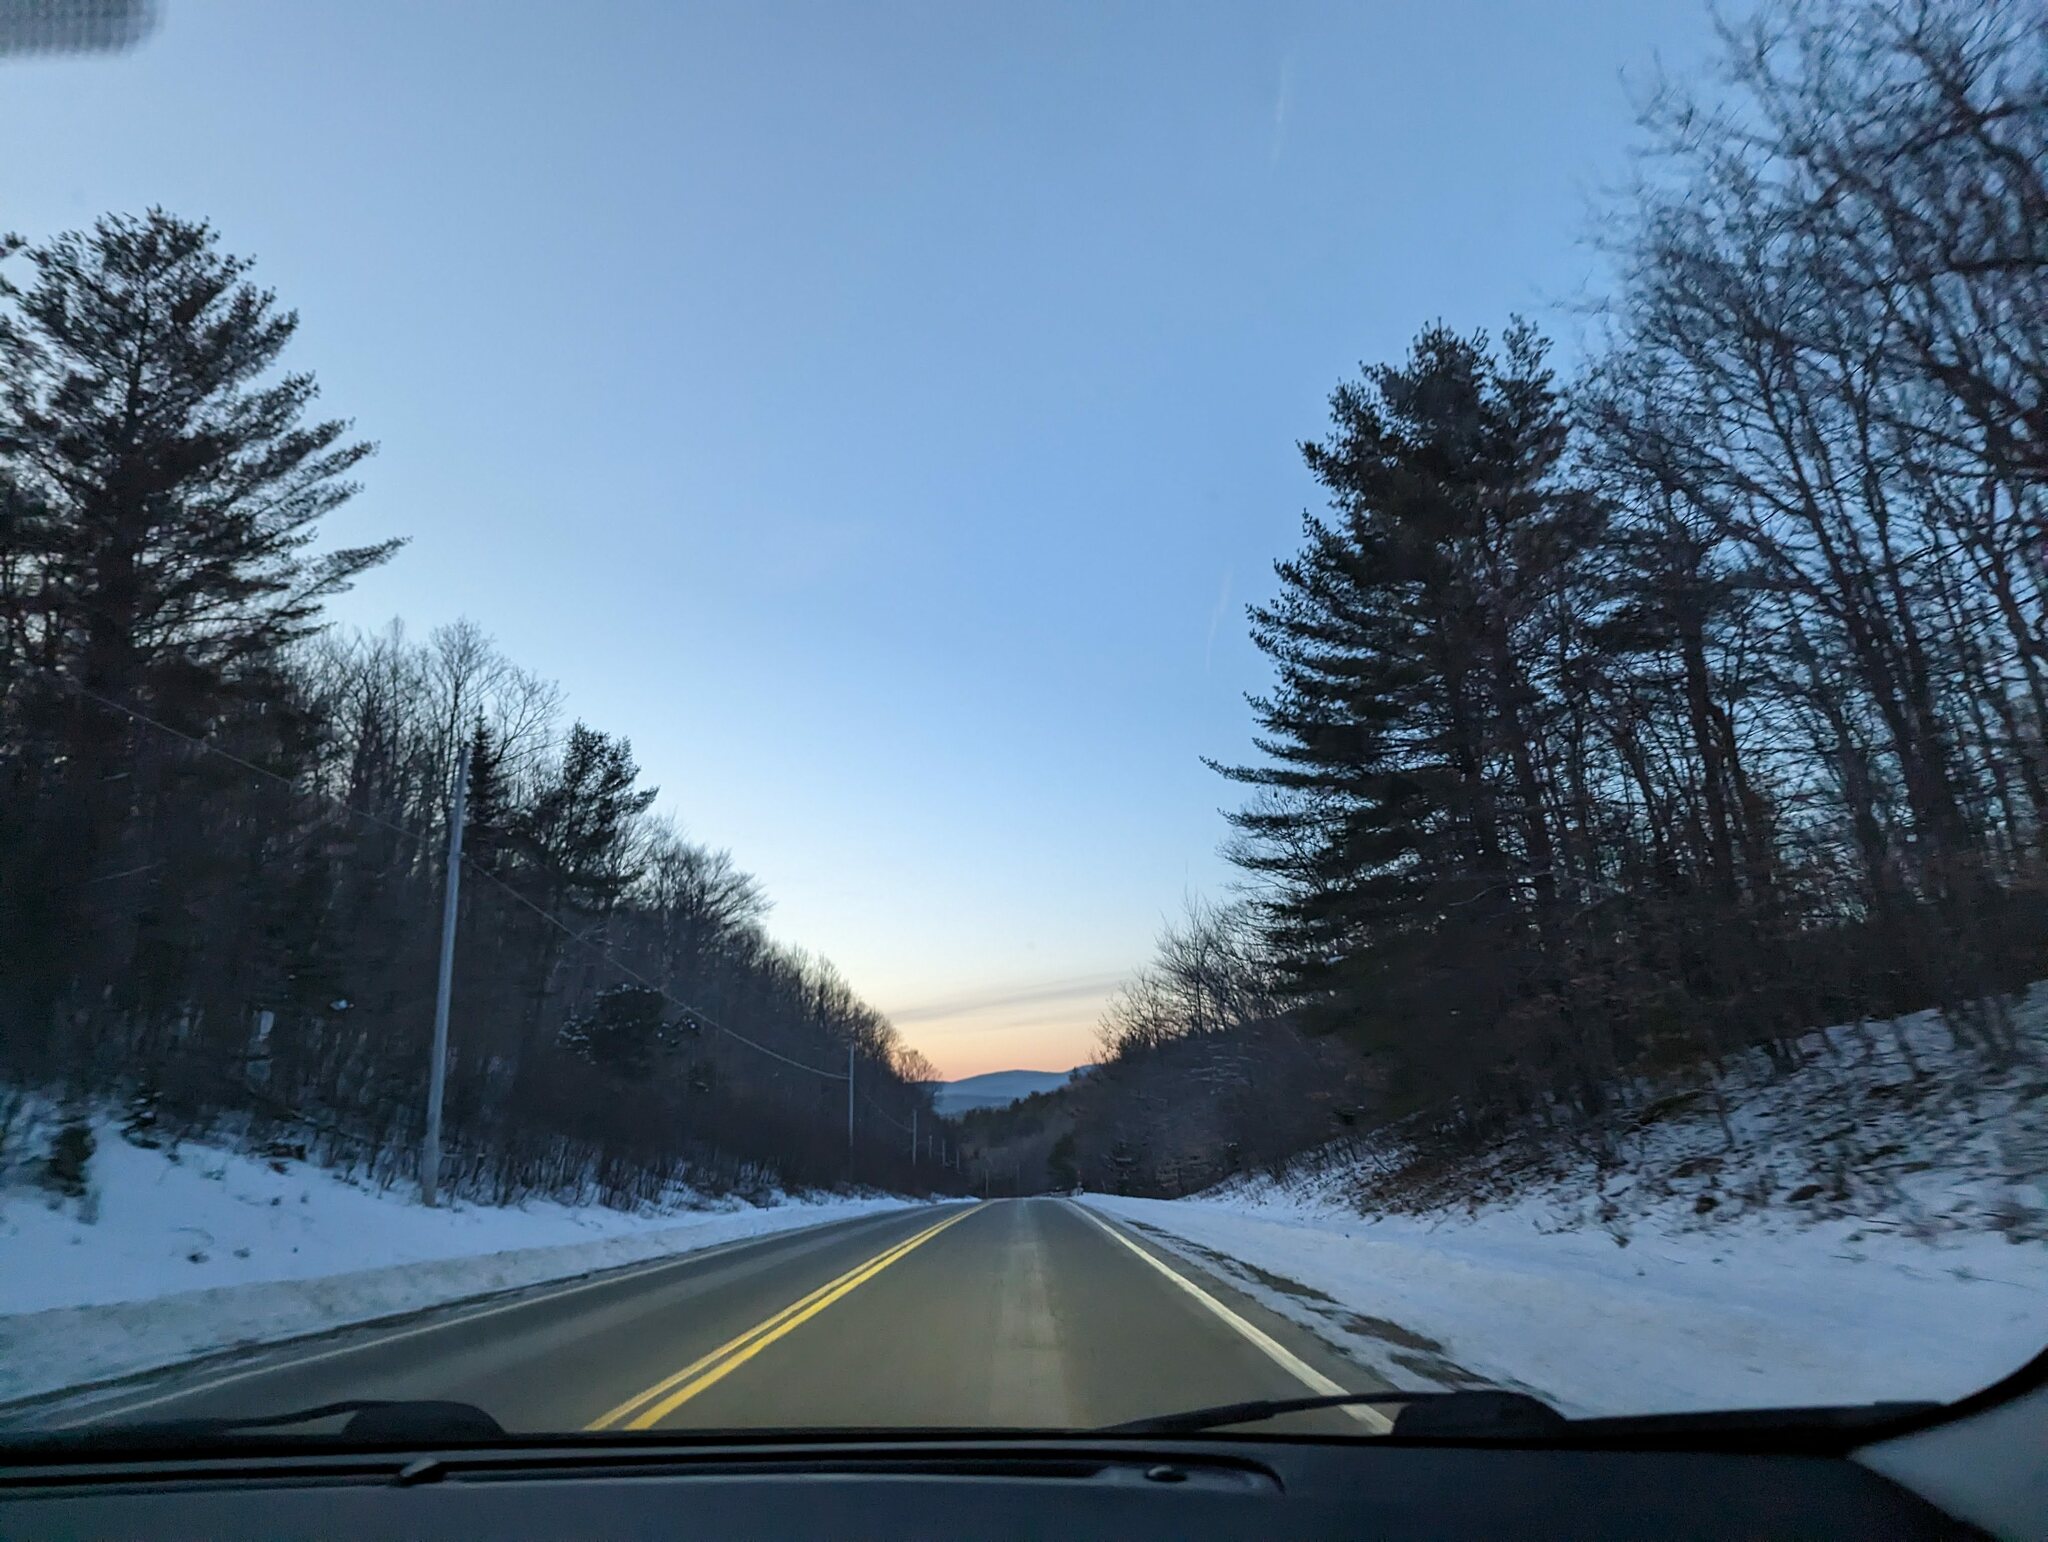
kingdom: Plantae
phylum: Tracheophyta
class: Pinopsida
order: Pinales
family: Pinaceae
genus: Pinus
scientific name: Pinus strobus
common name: Weymouth pine
